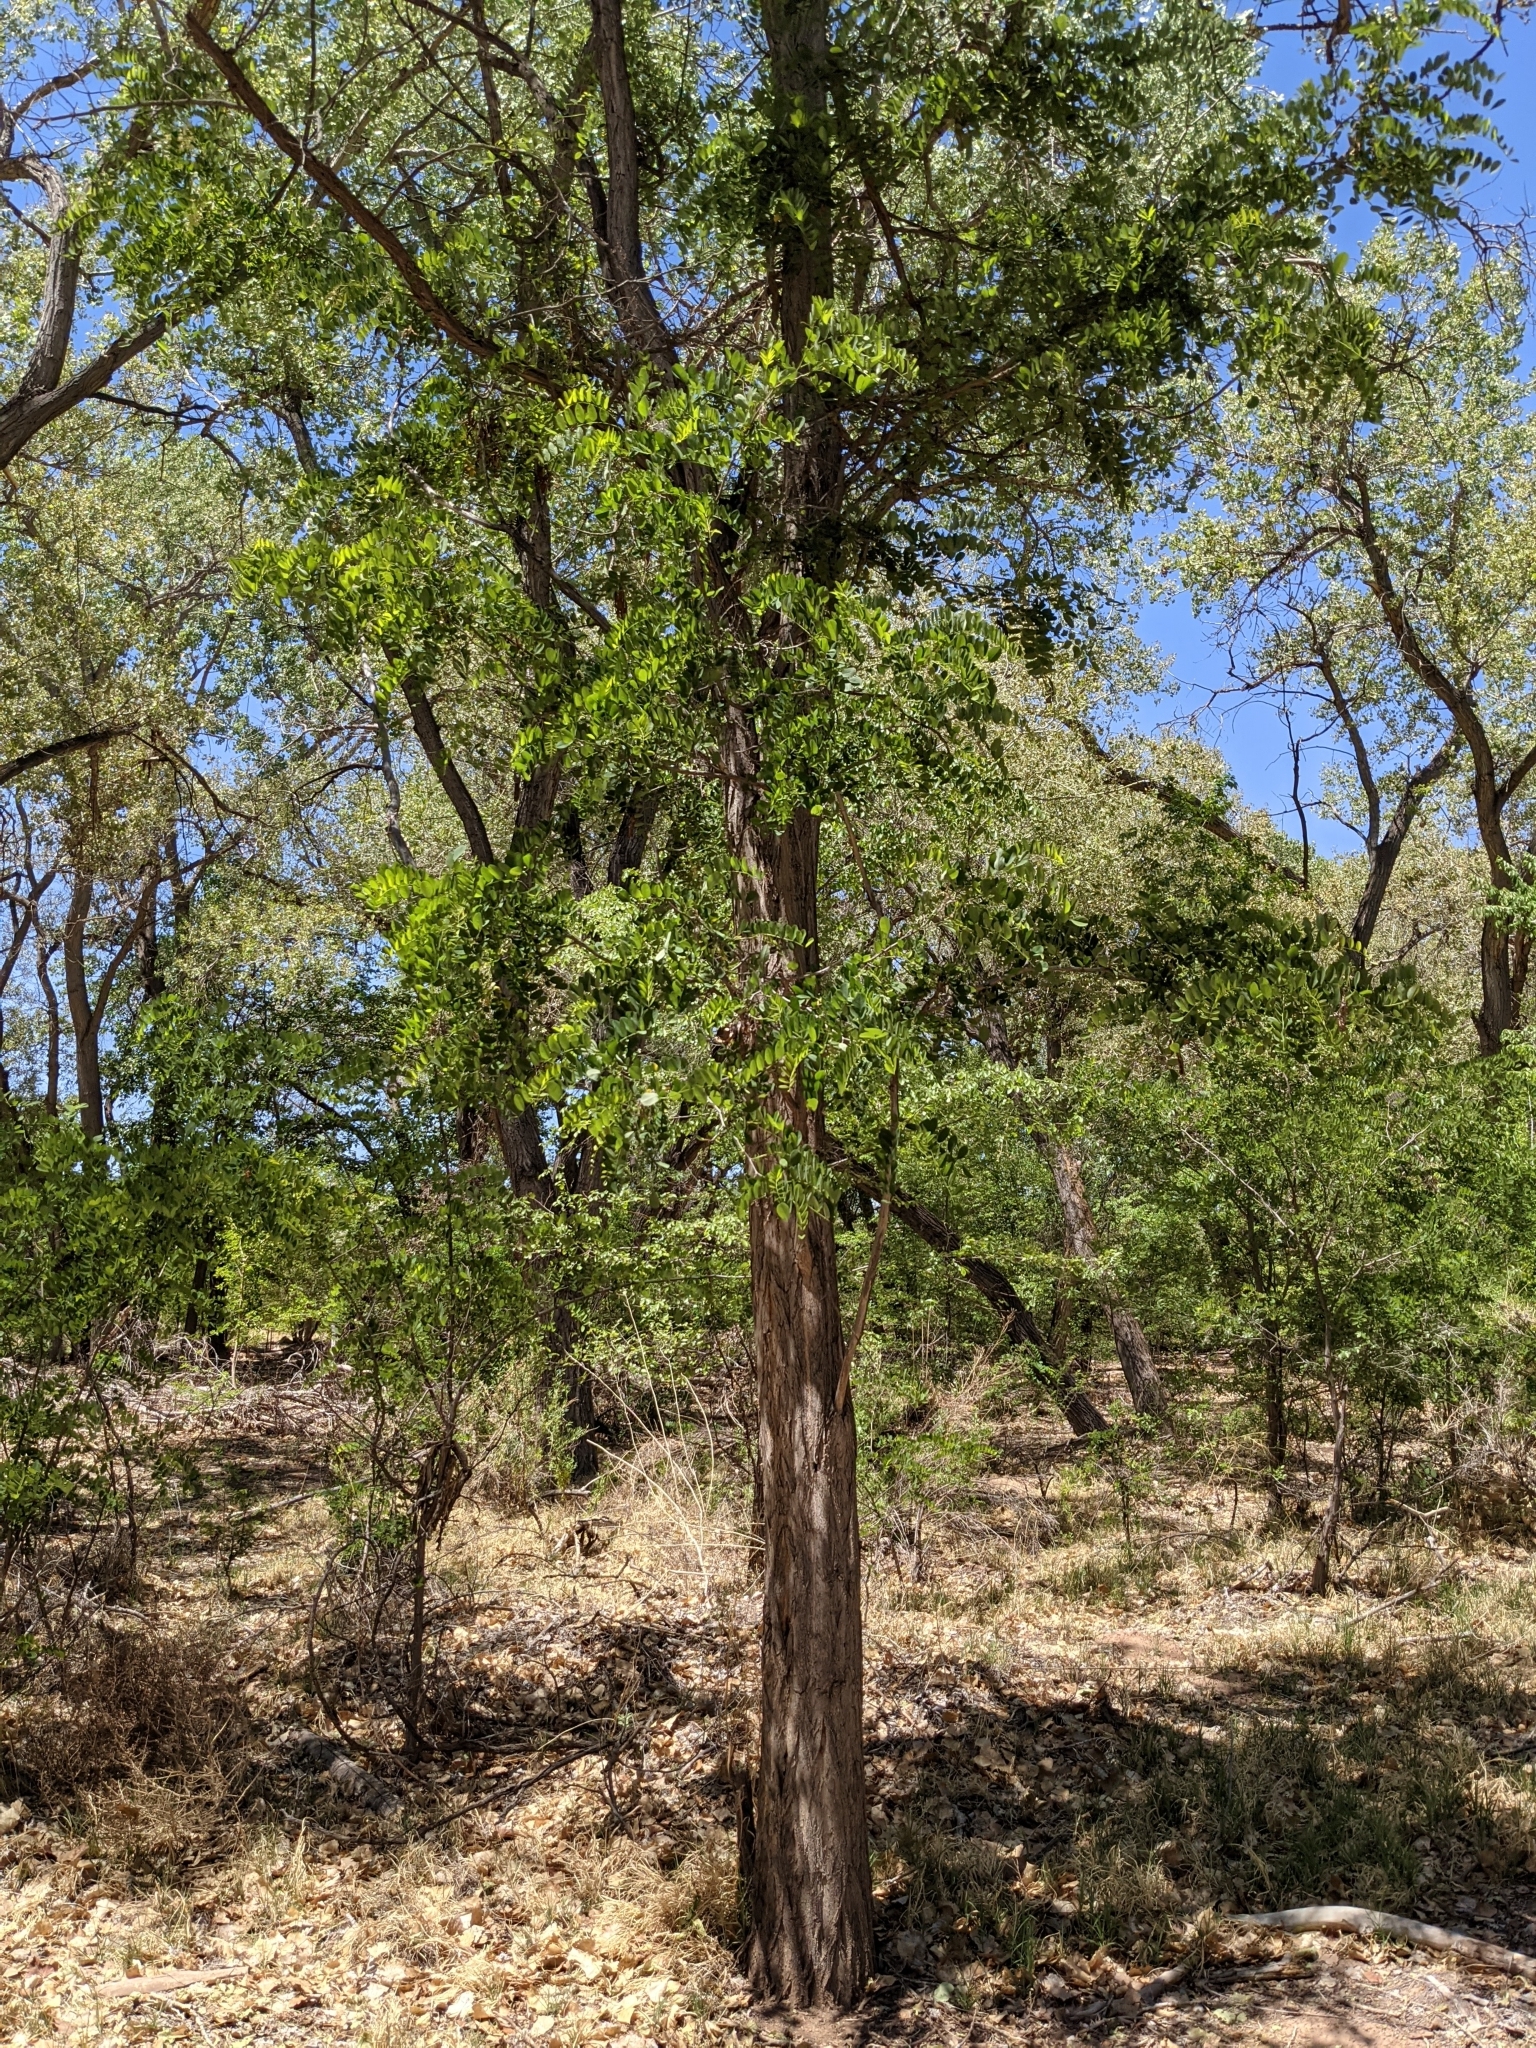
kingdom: Plantae
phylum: Tracheophyta
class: Magnoliopsida
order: Fabales
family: Fabaceae
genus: Robinia
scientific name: Robinia pseudoacacia
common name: Black locust
